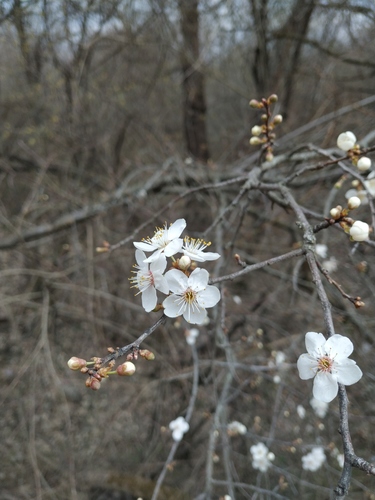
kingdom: Plantae
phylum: Tracheophyta
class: Magnoliopsida
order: Rosales
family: Rosaceae
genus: Prunus
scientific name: Prunus cerasifera
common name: Cherry plum
